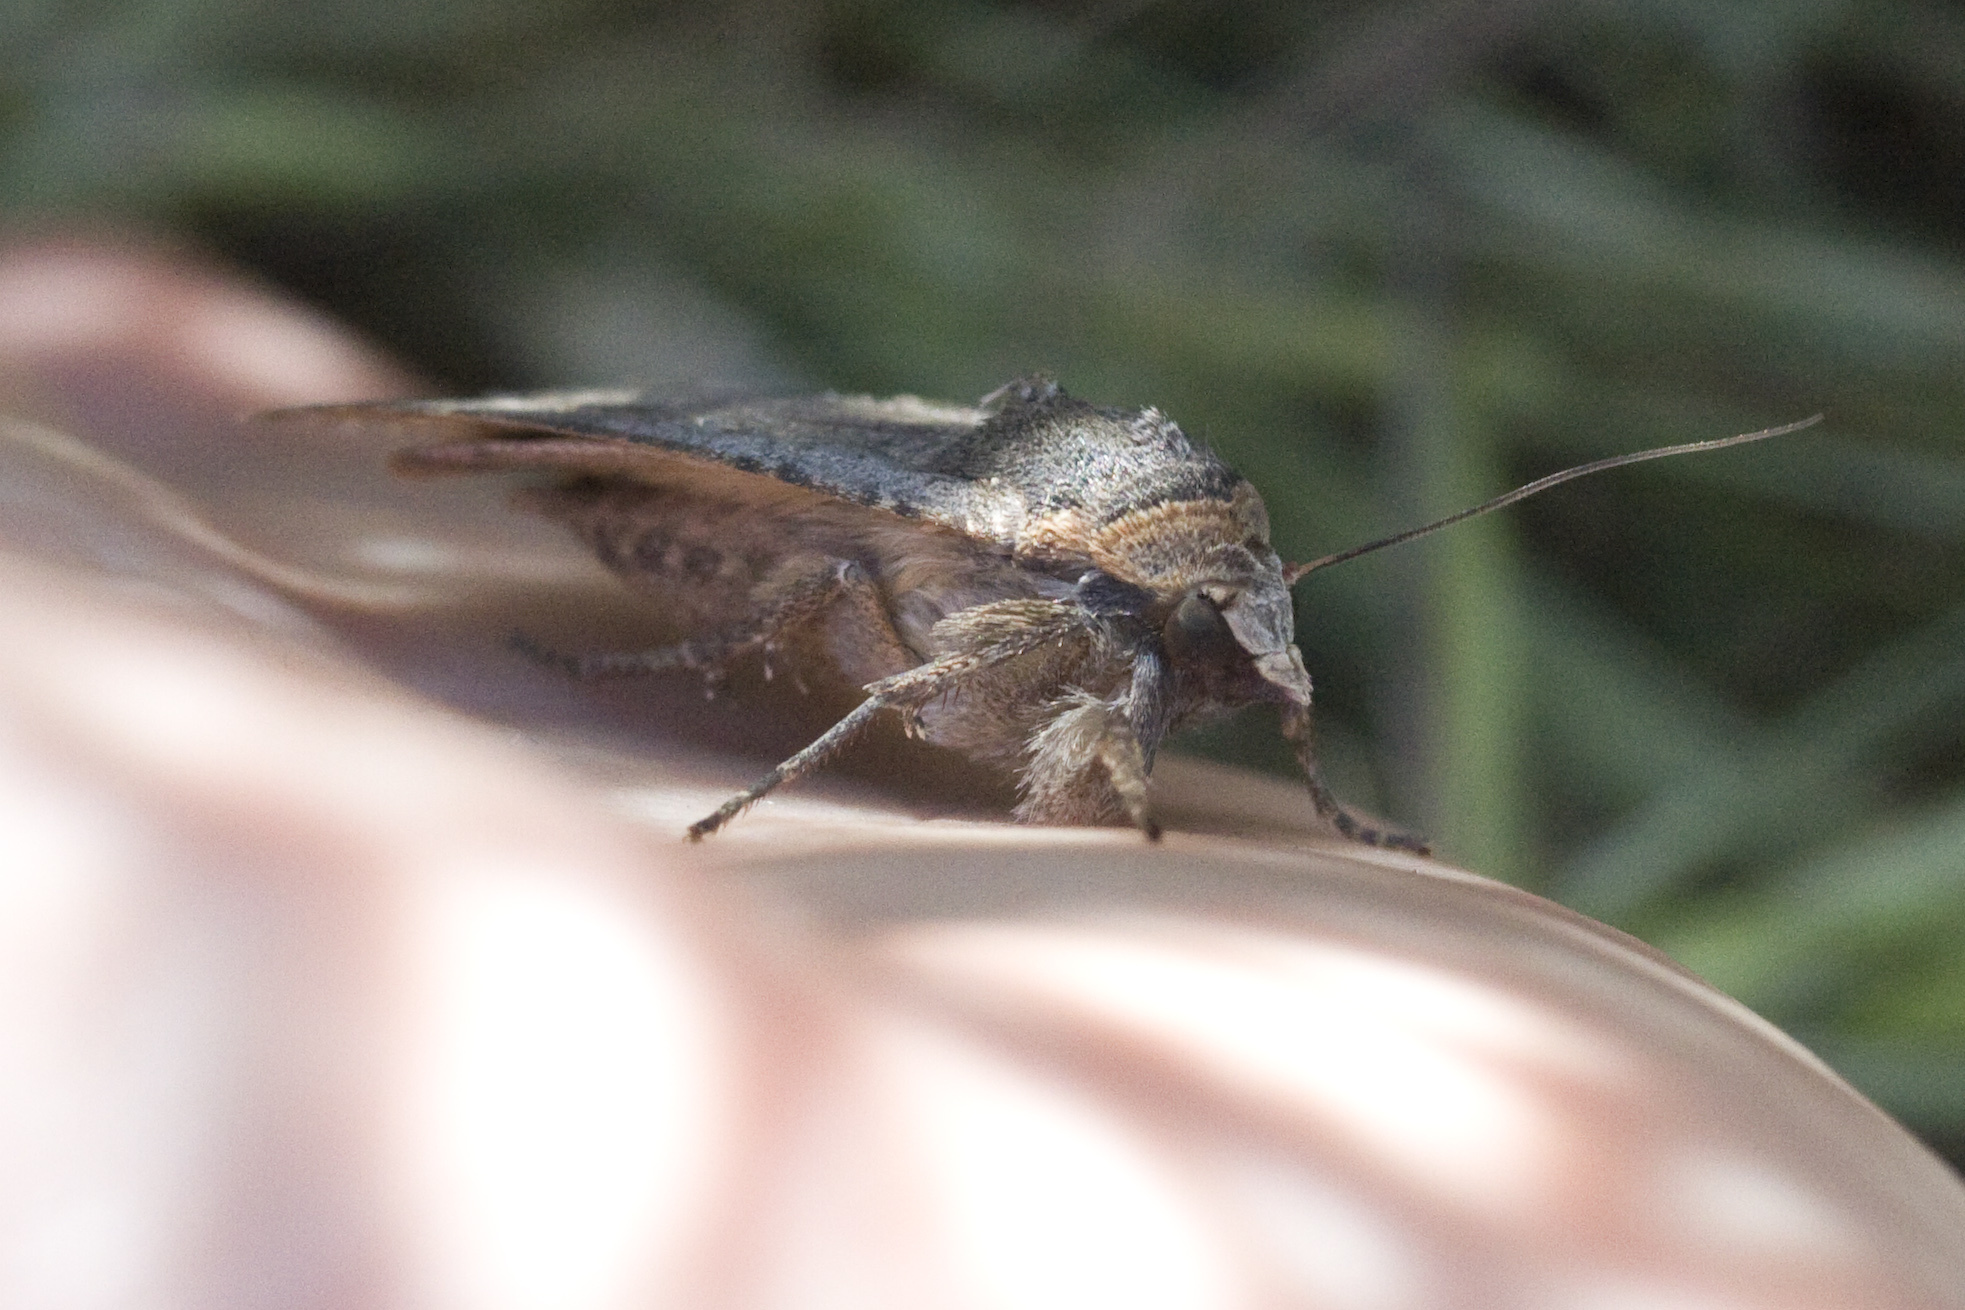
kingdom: Animalia
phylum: Arthropoda
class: Insecta
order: Lepidoptera
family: Noctuidae
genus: Noctua
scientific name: Noctua pronuba
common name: Large yellow underwing
